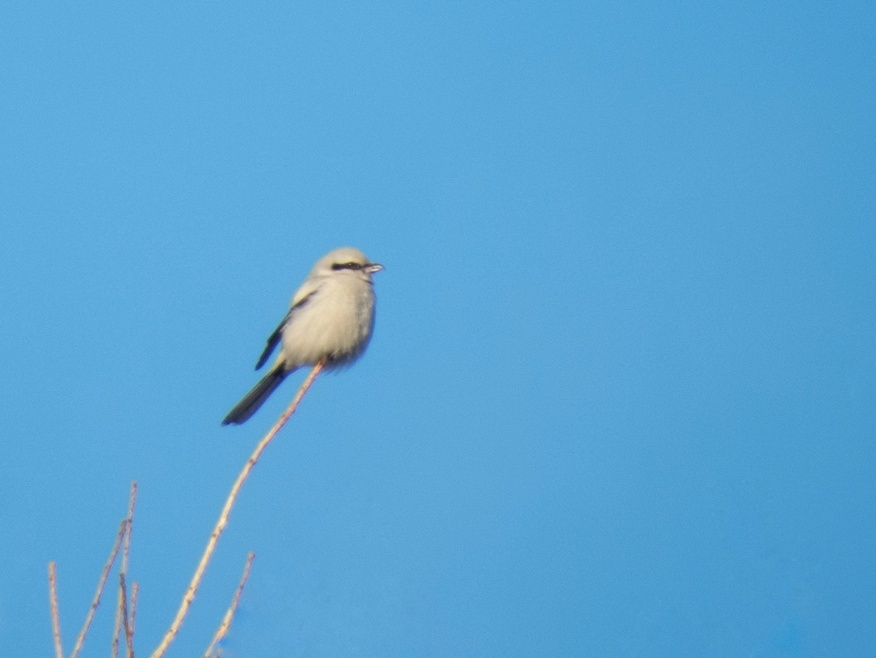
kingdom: Animalia
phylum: Chordata
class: Aves
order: Passeriformes
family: Laniidae
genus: Lanius
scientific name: Lanius excubitor
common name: Great grey shrike
